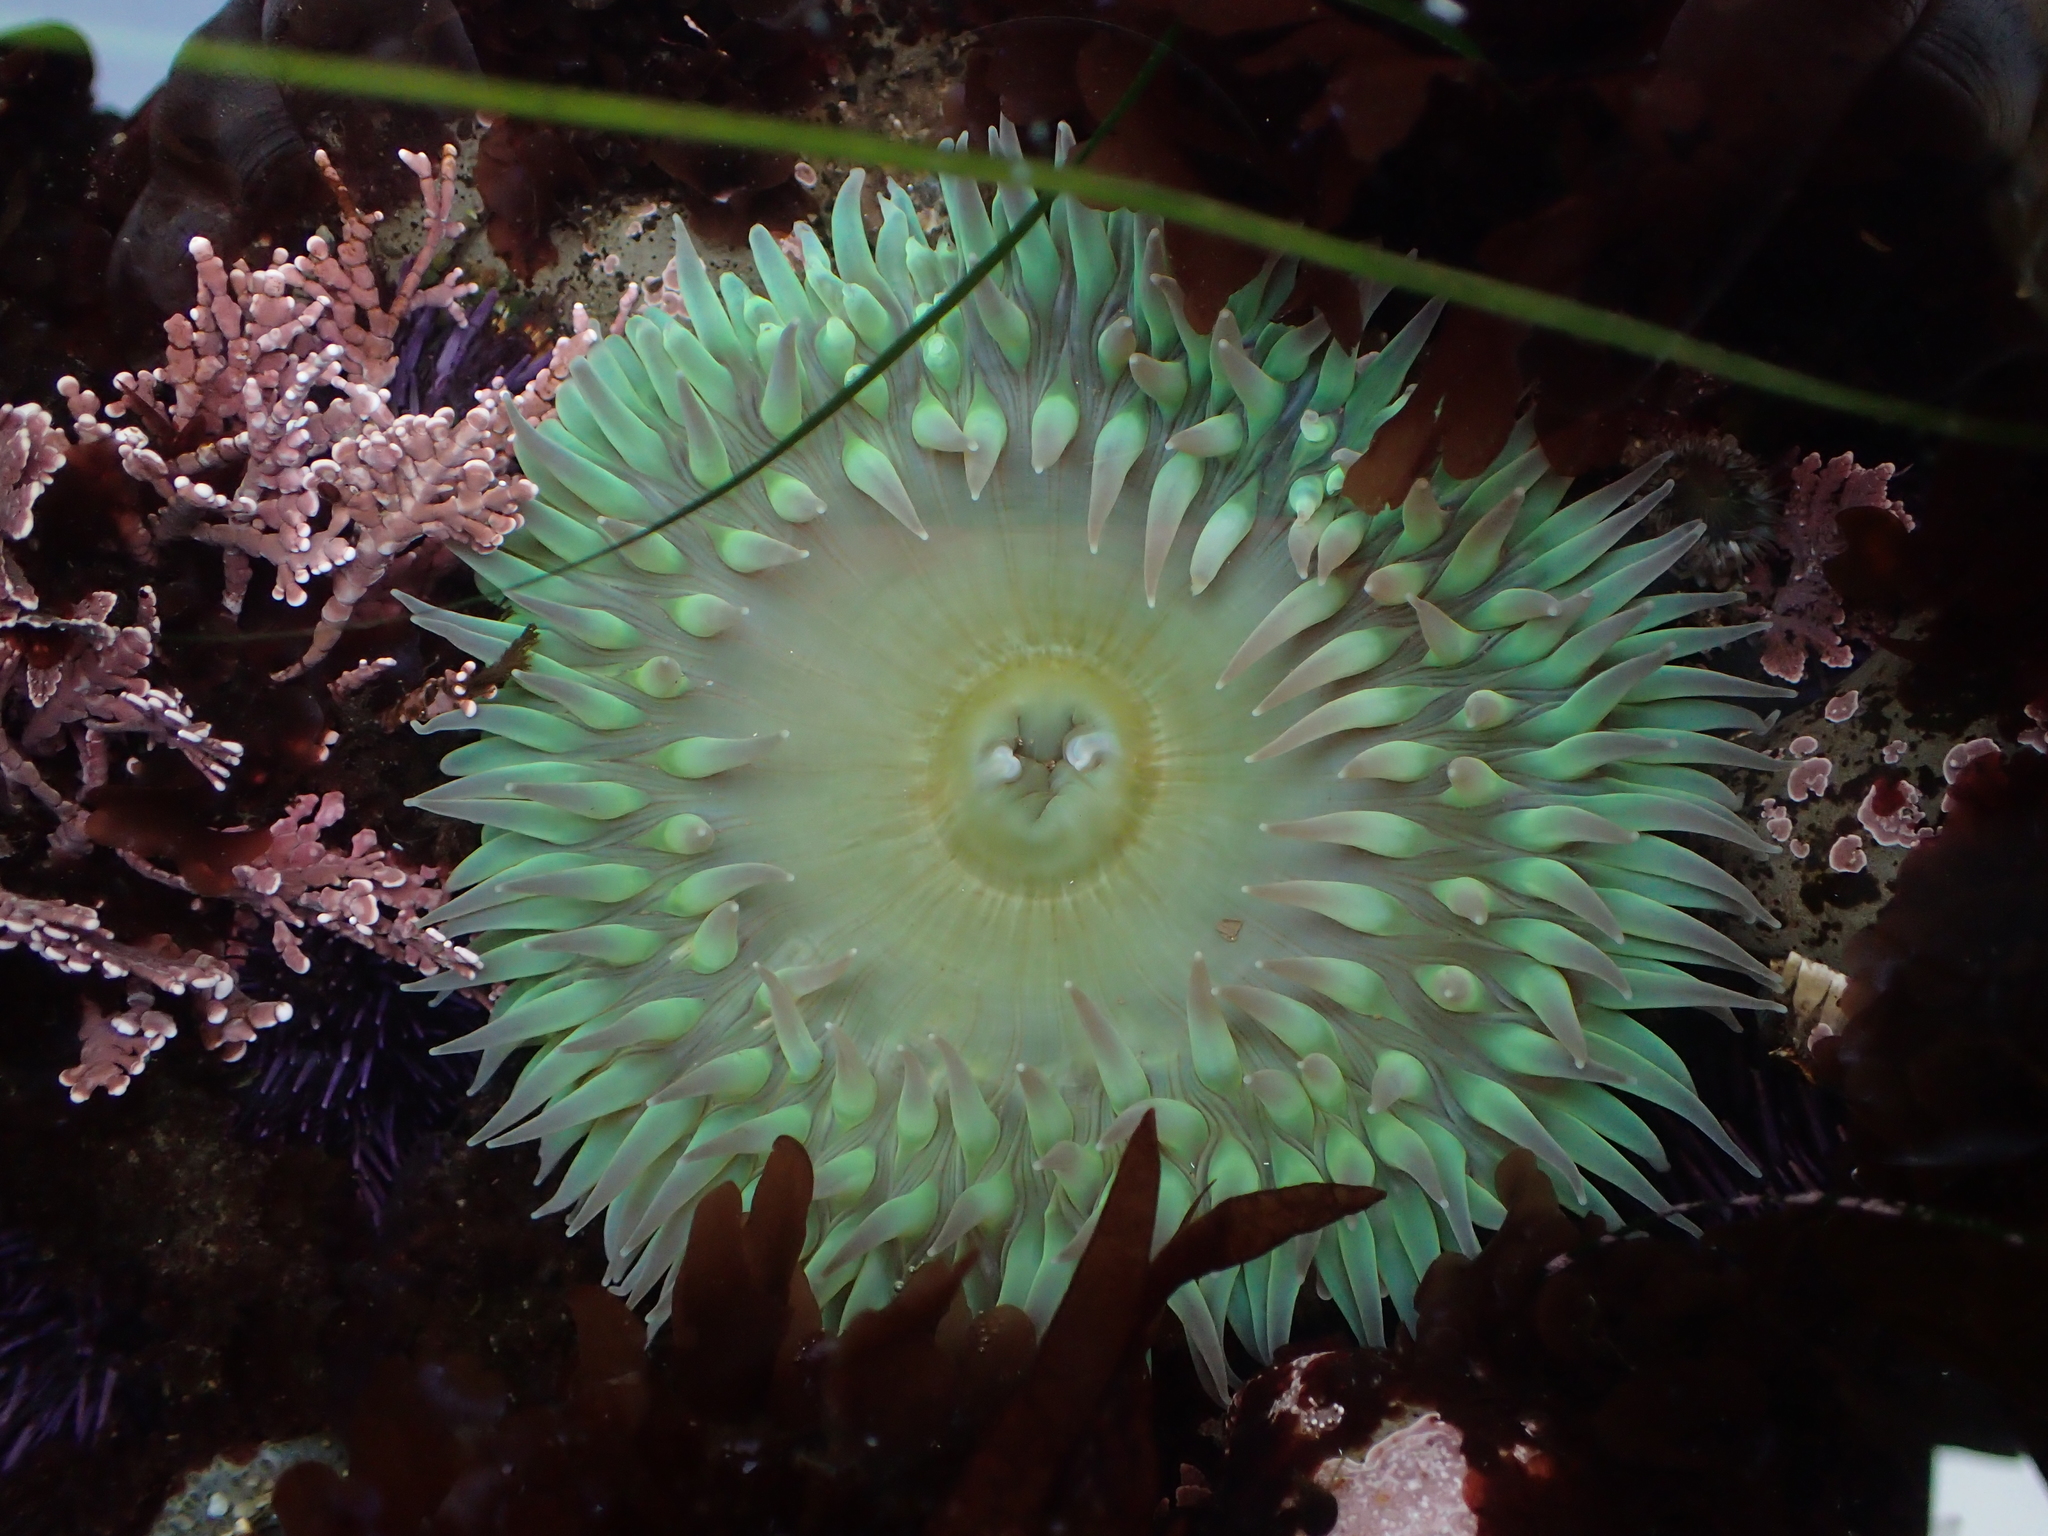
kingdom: Animalia
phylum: Cnidaria
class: Anthozoa
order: Actiniaria
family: Actiniidae
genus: Anthopleura
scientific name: Anthopleura xanthogrammica
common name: Giant green anemone
